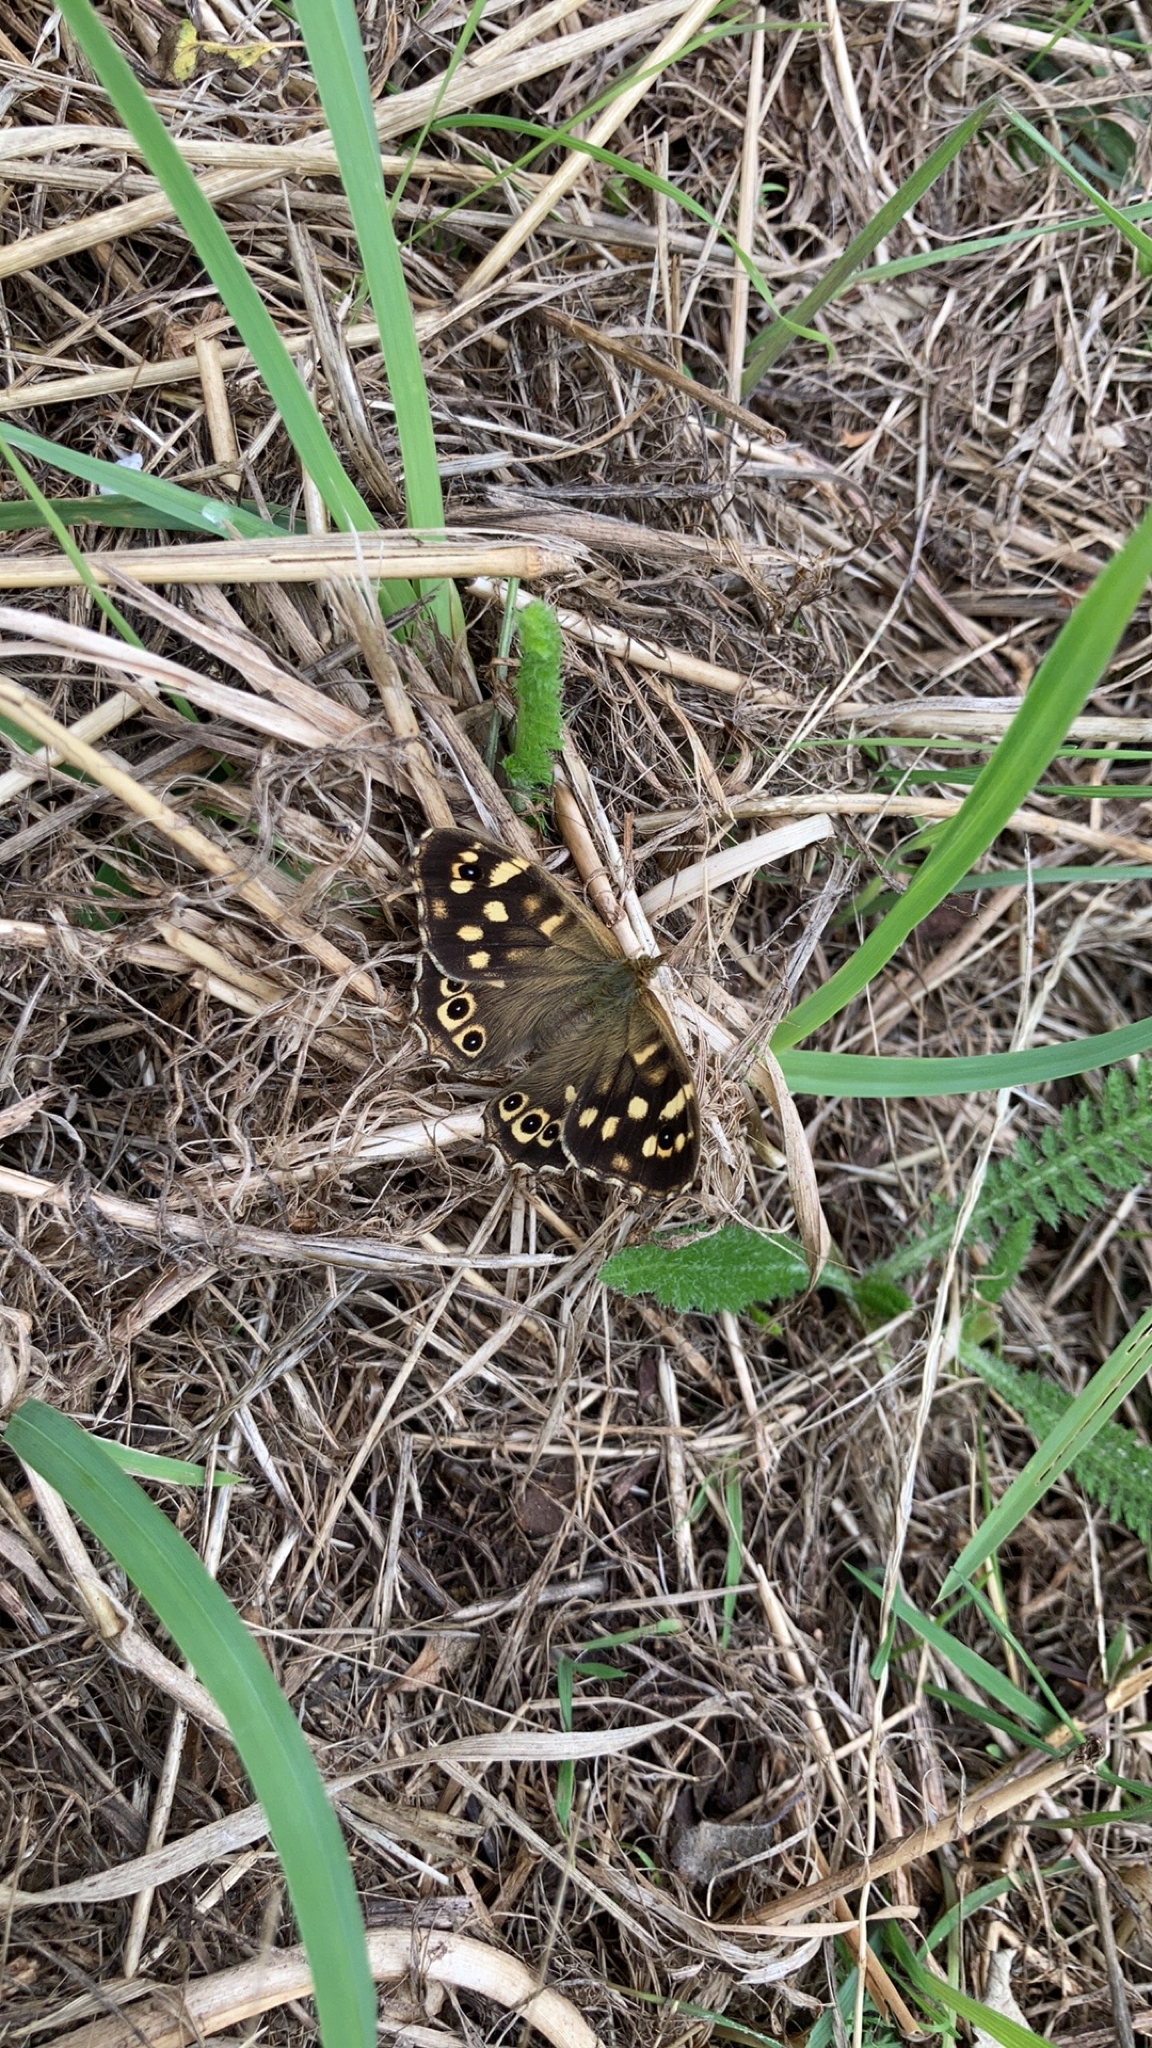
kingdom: Animalia
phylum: Arthropoda
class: Insecta
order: Lepidoptera
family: Nymphalidae
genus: Pararge
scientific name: Pararge aegeria
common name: Speckled wood
